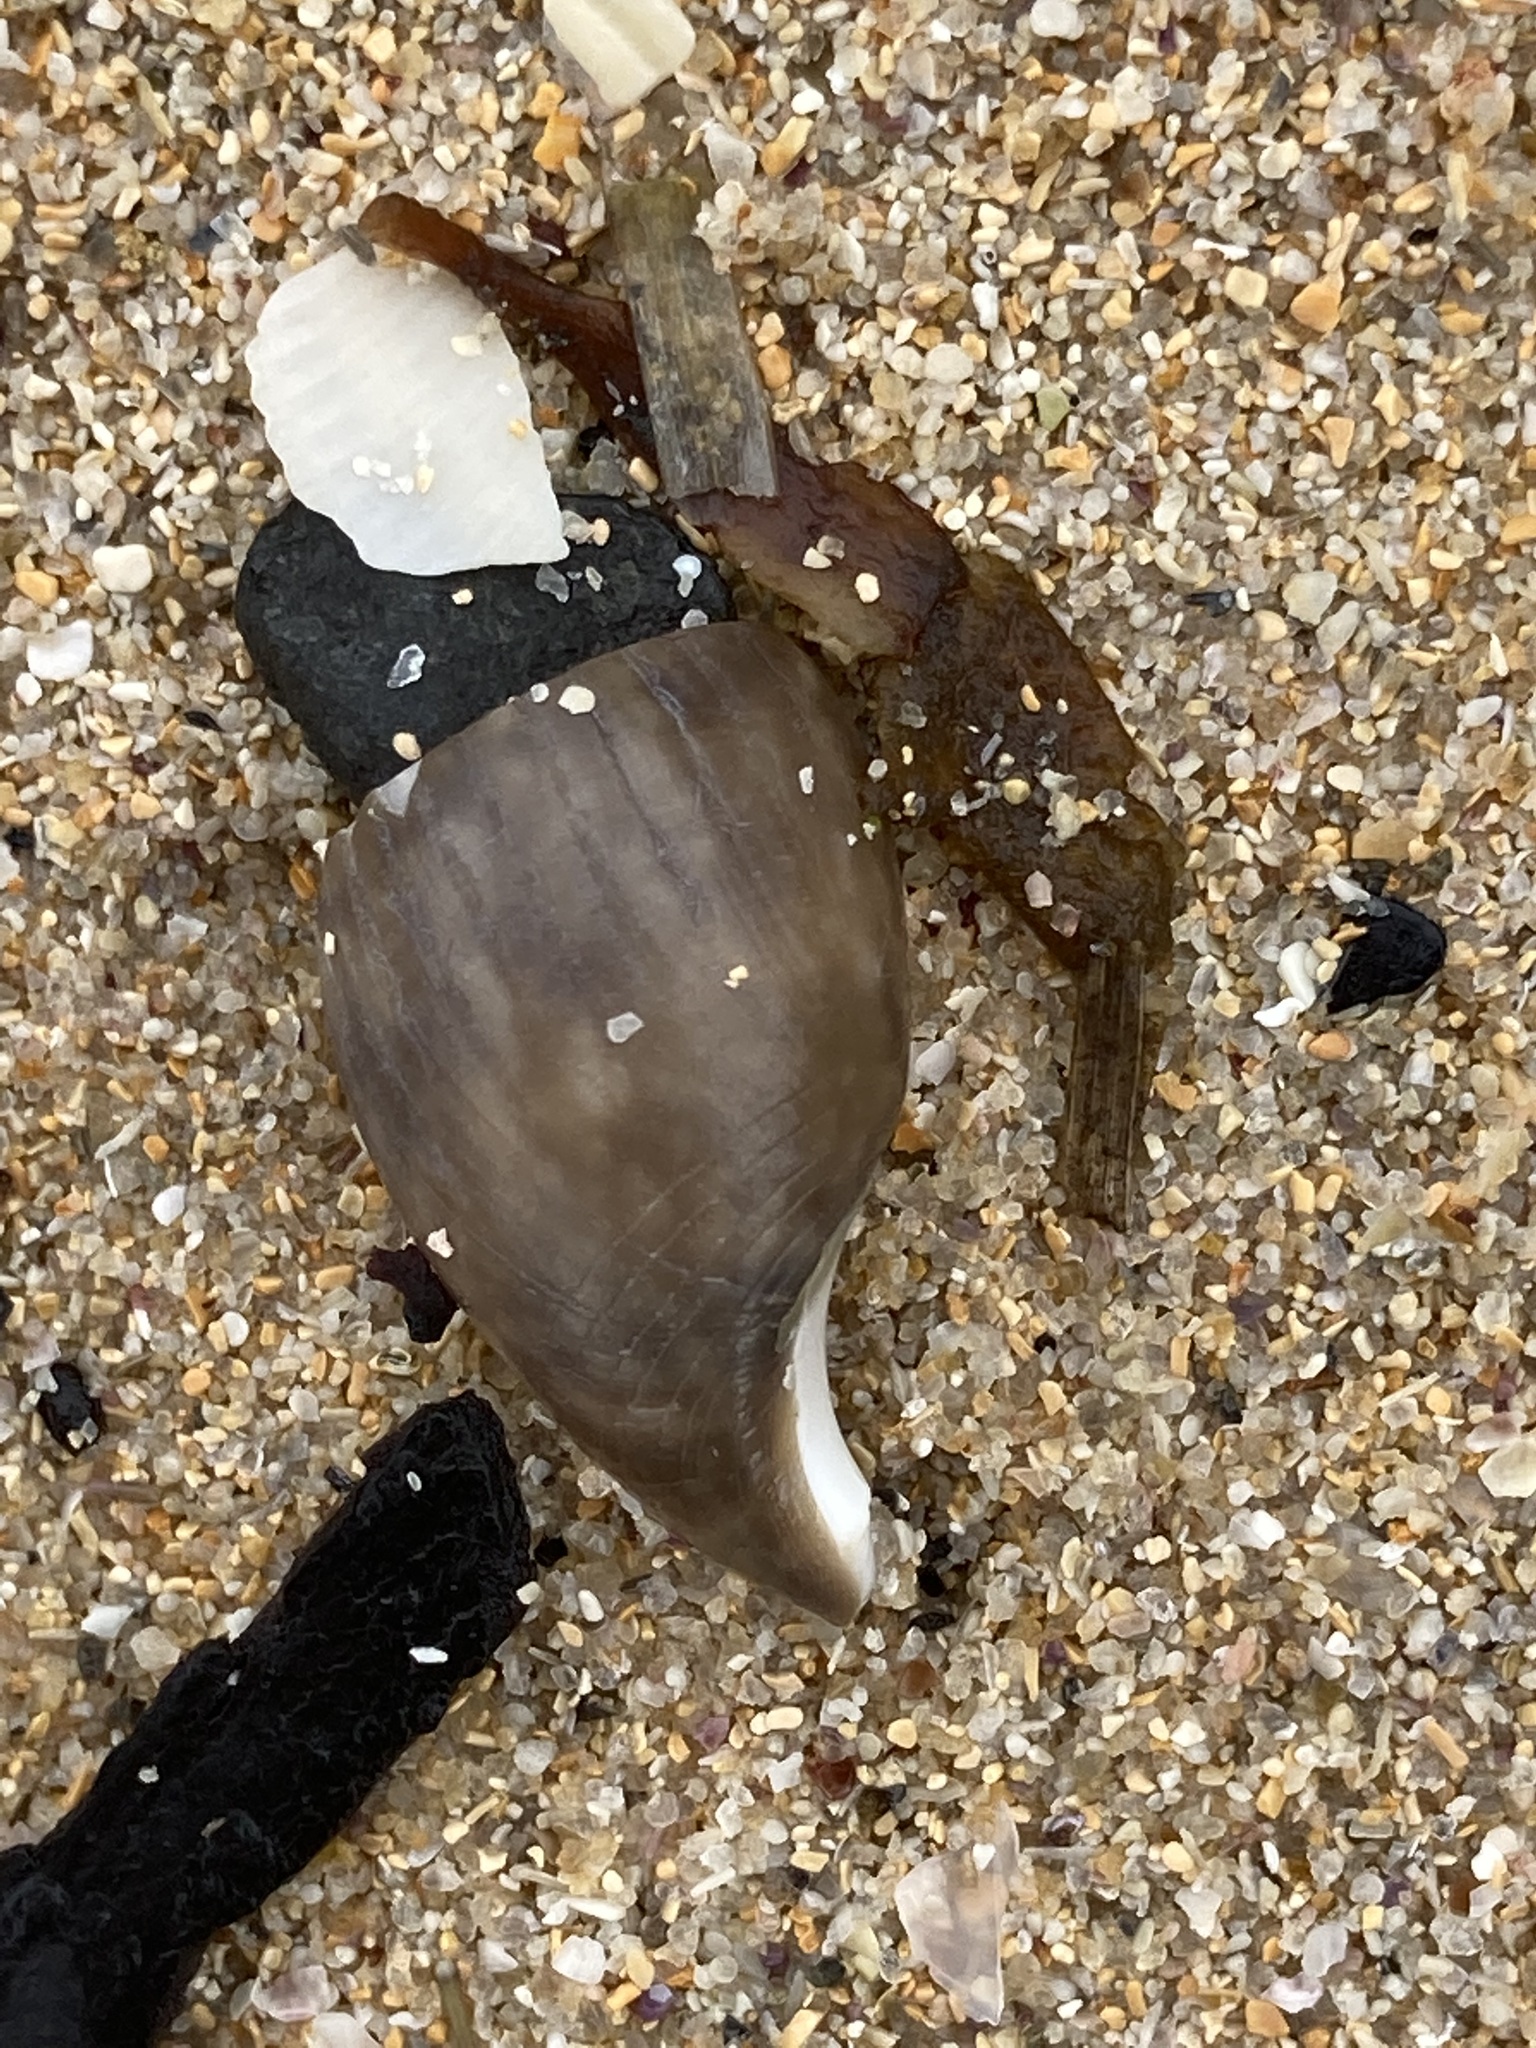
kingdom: Animalia
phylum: Mollusca
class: Gastropoda
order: Cephalaspidea
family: Bullidae
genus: Bulla
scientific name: Bulla quoyii
